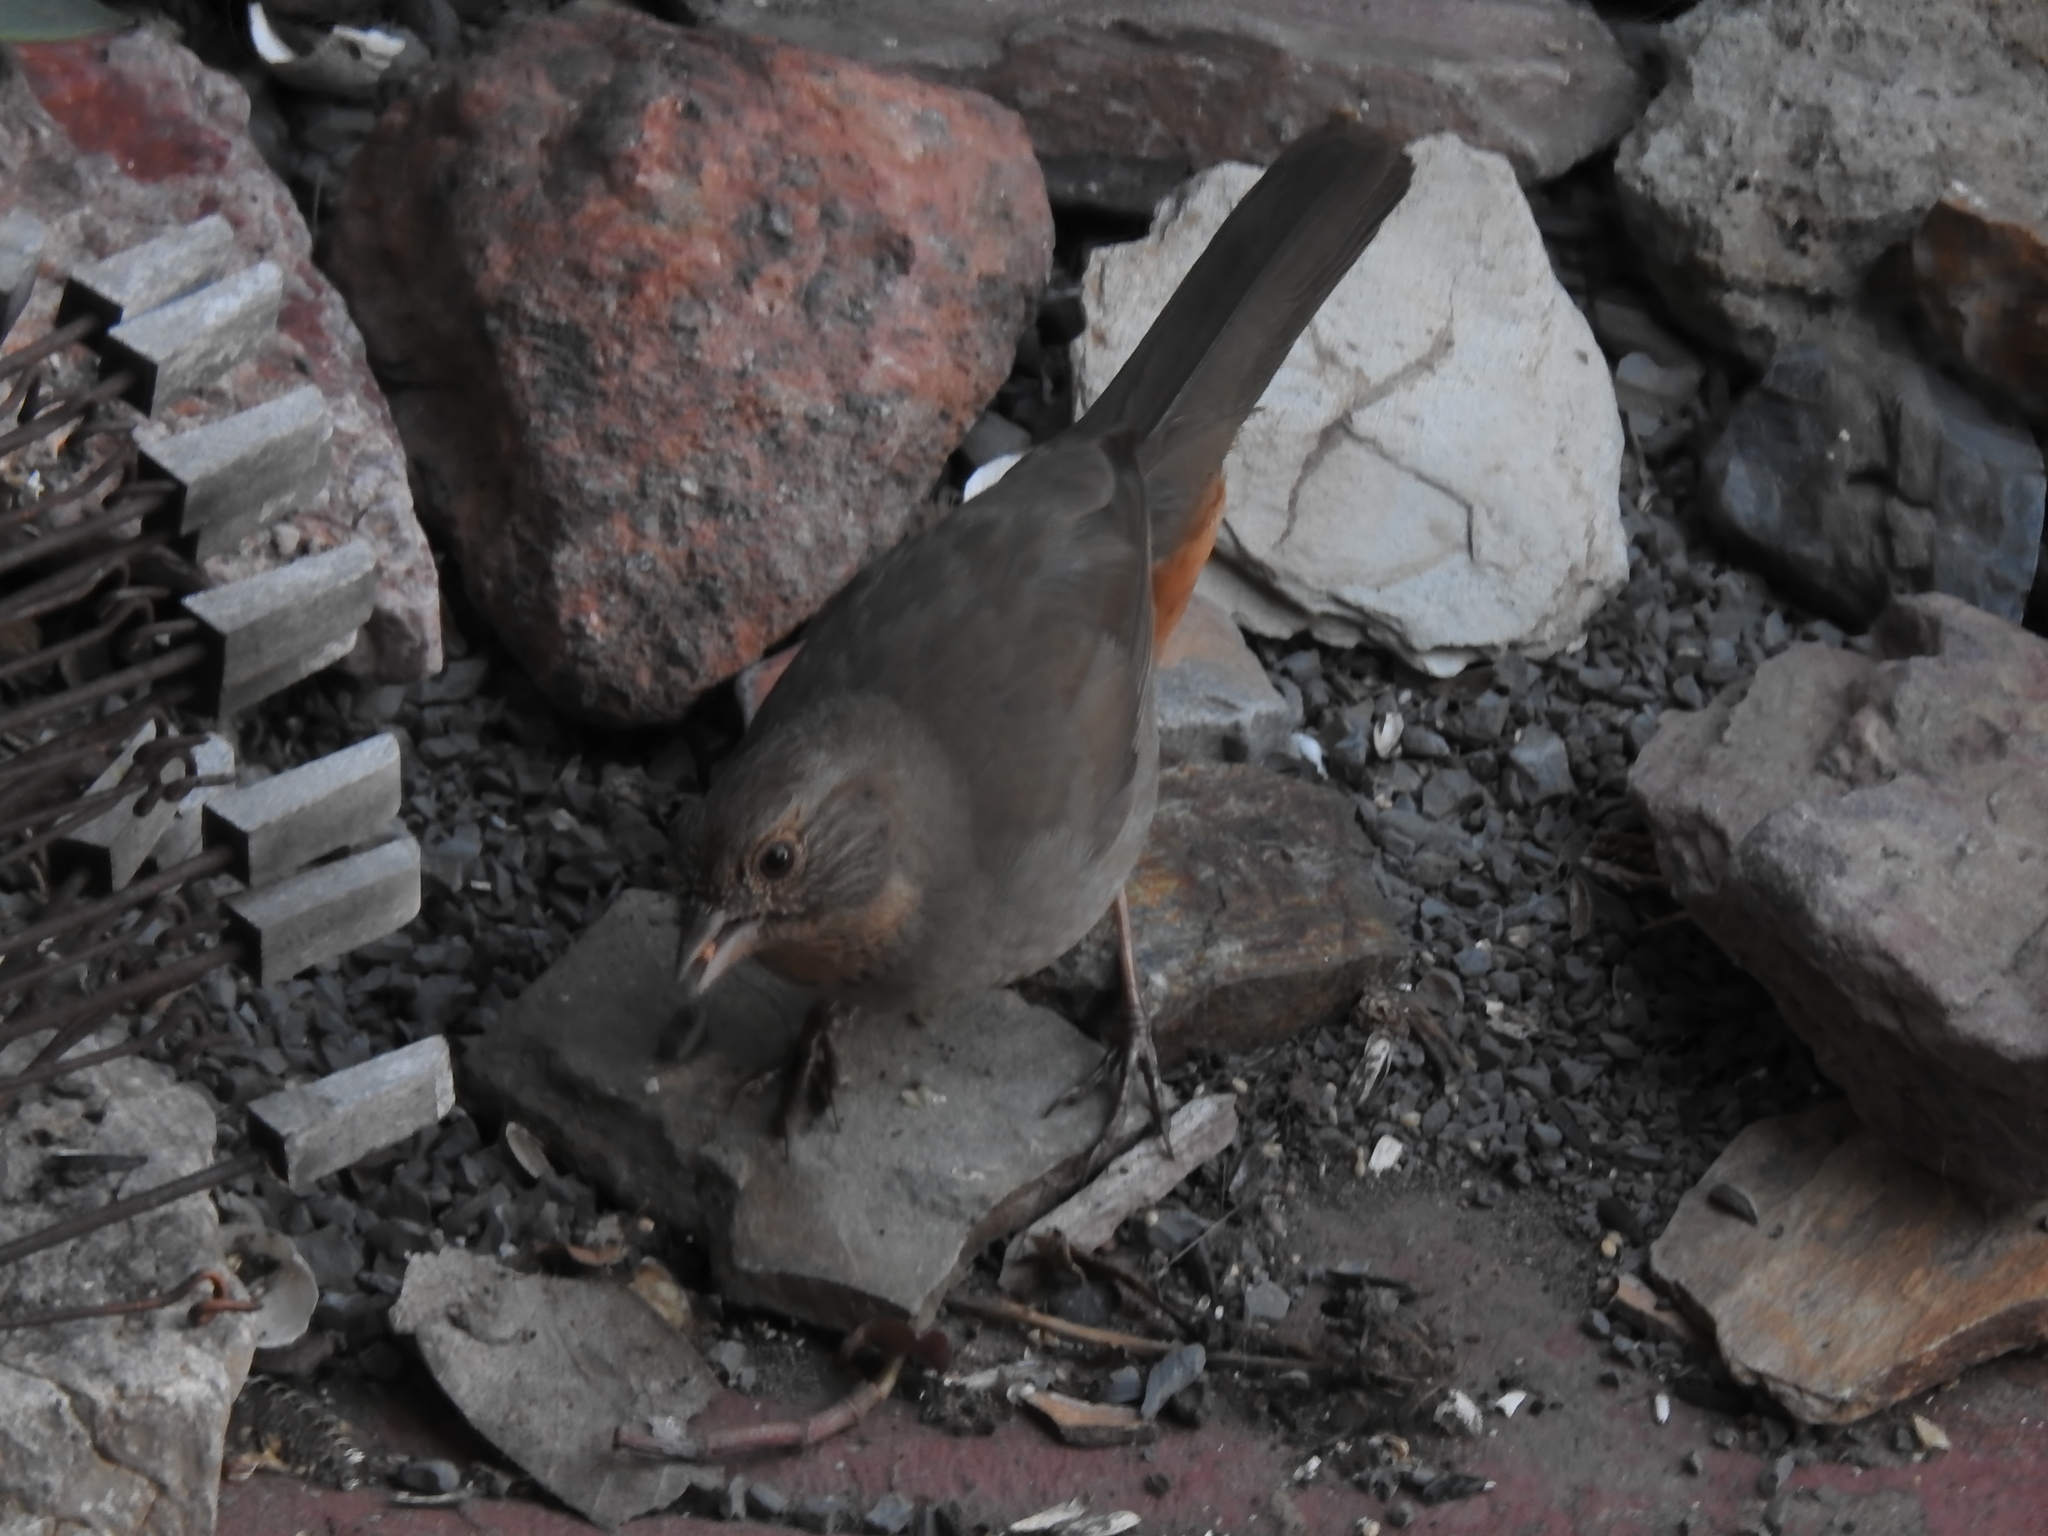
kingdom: Animalia
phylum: Chordata
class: Aves
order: Passeriformes
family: Passerellidae
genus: Melozone
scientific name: Melozone crissalis
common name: California towhee
